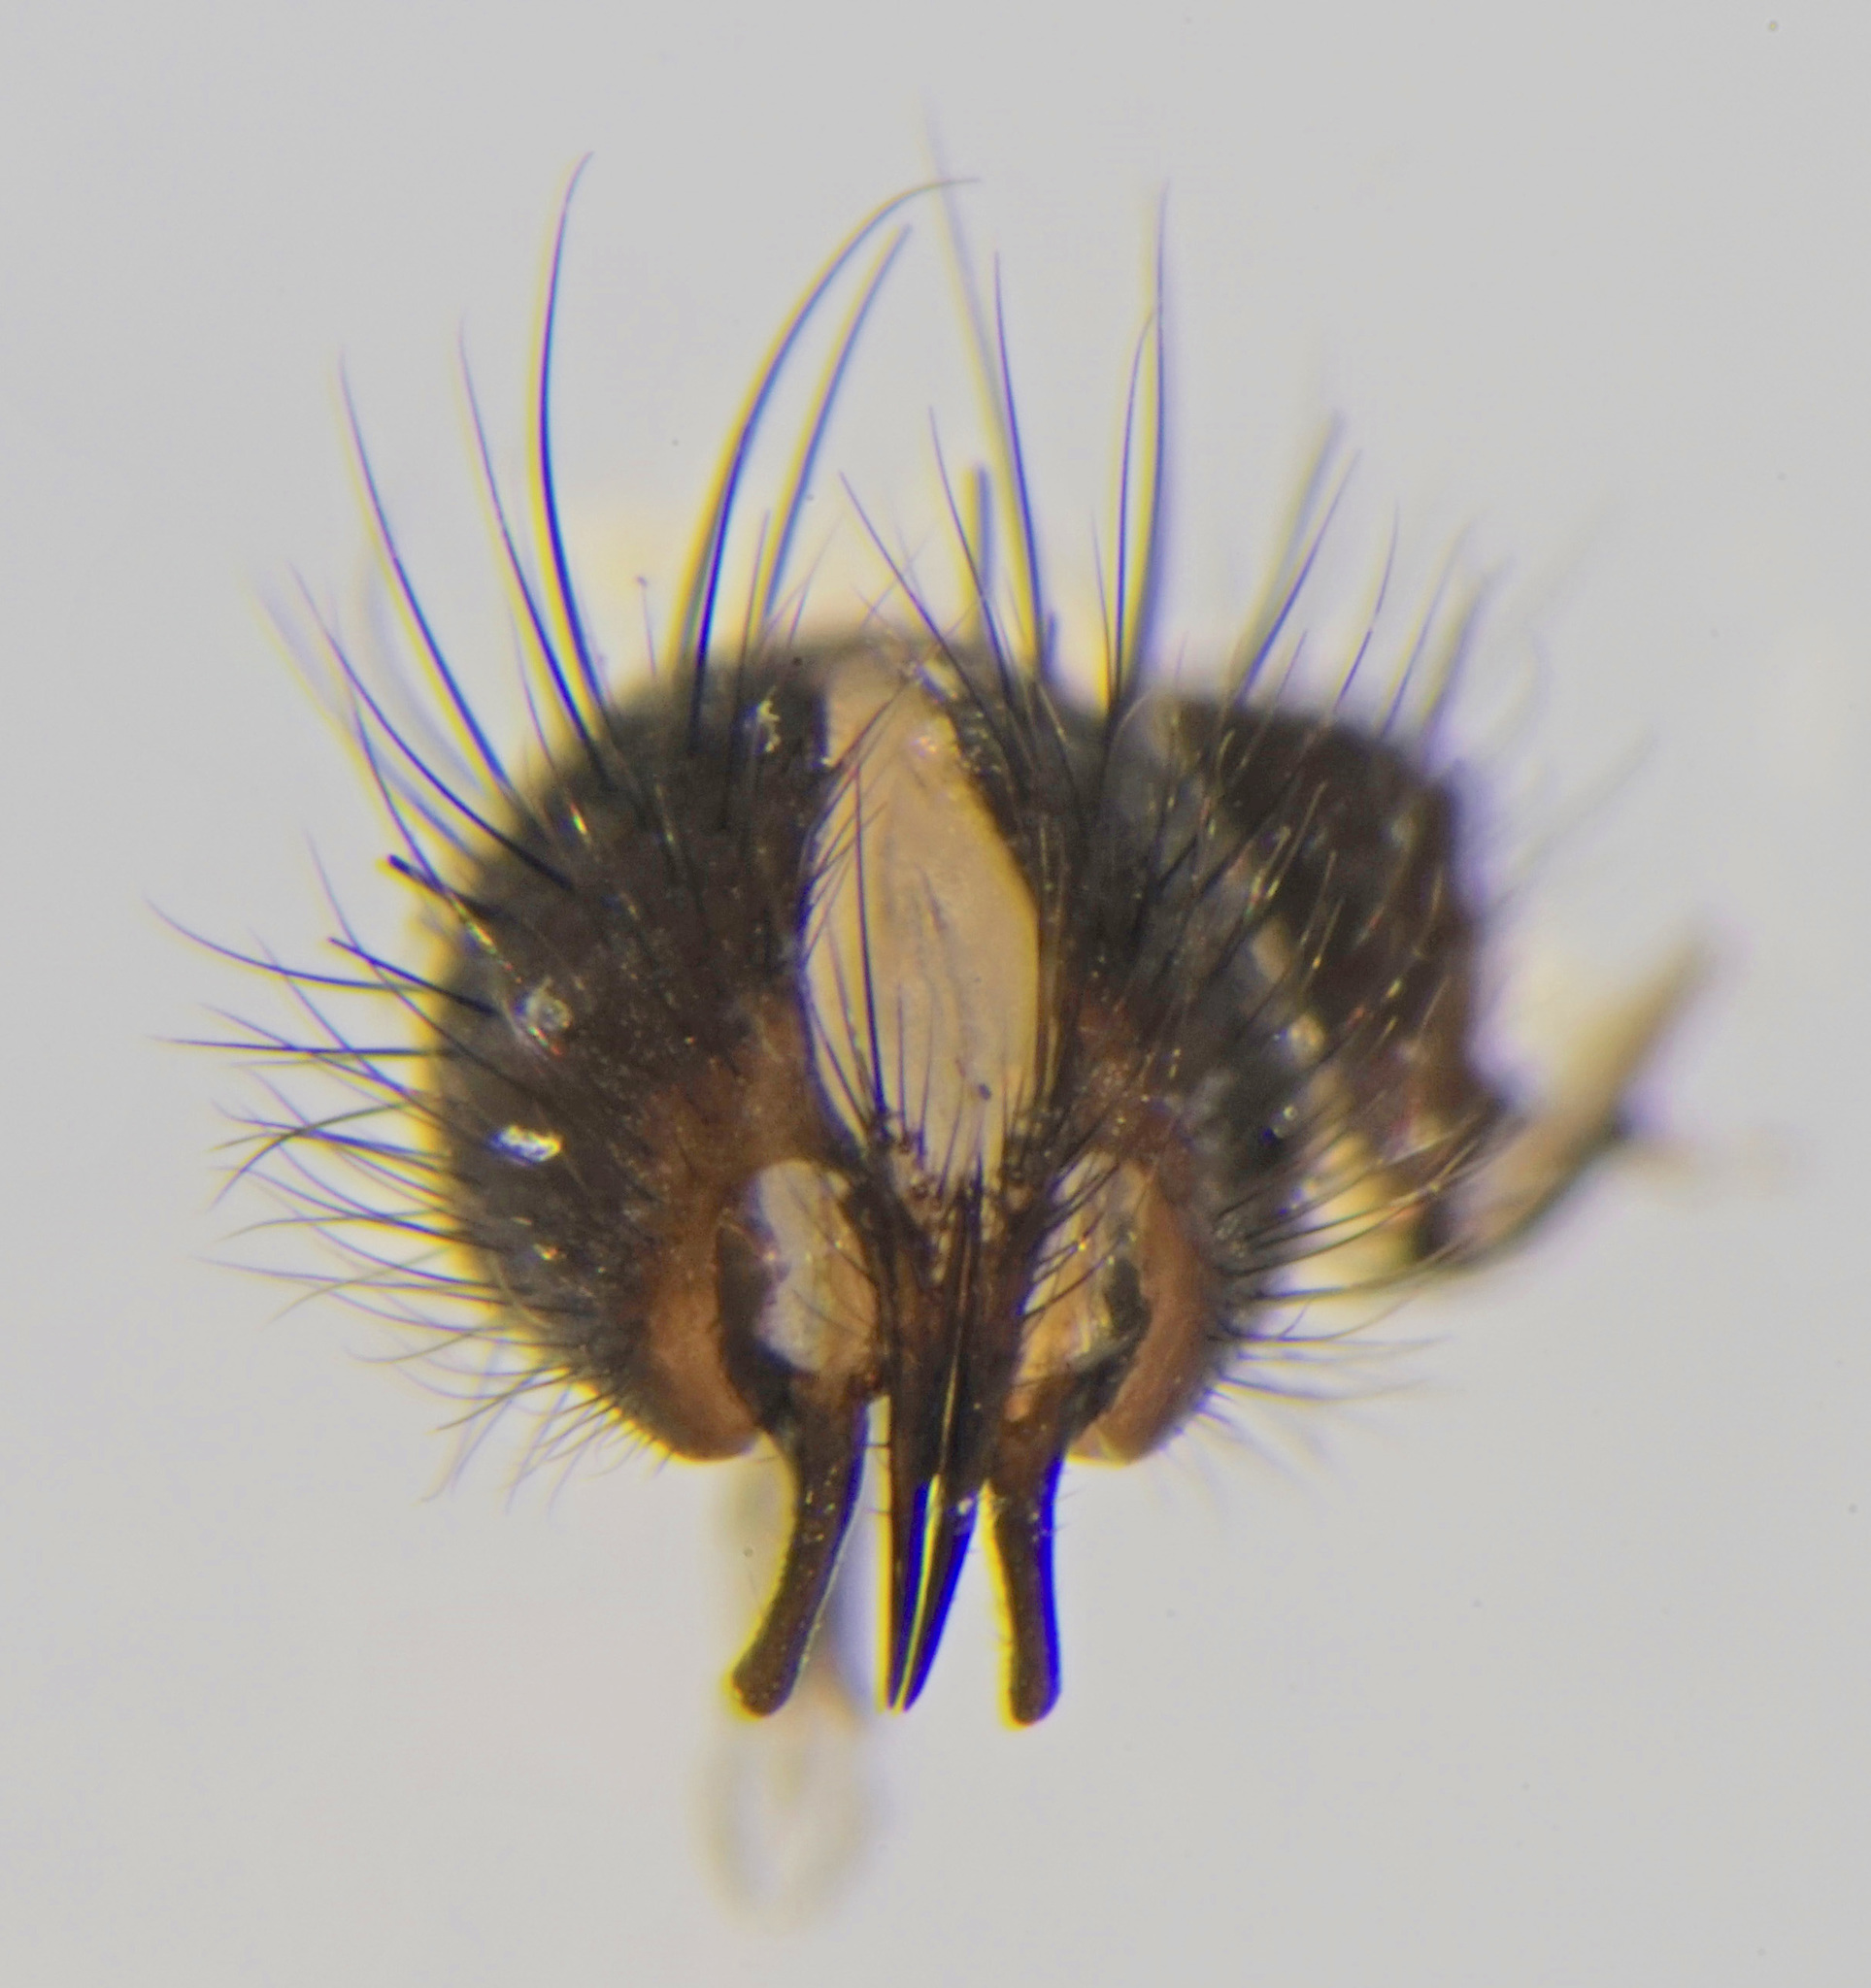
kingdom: Animalia
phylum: Arthropoda
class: Insecta
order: Diptera
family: Calliphoridae
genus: Bellardia
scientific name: Bellardia viarum
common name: Dark-veined emerald-bottle
